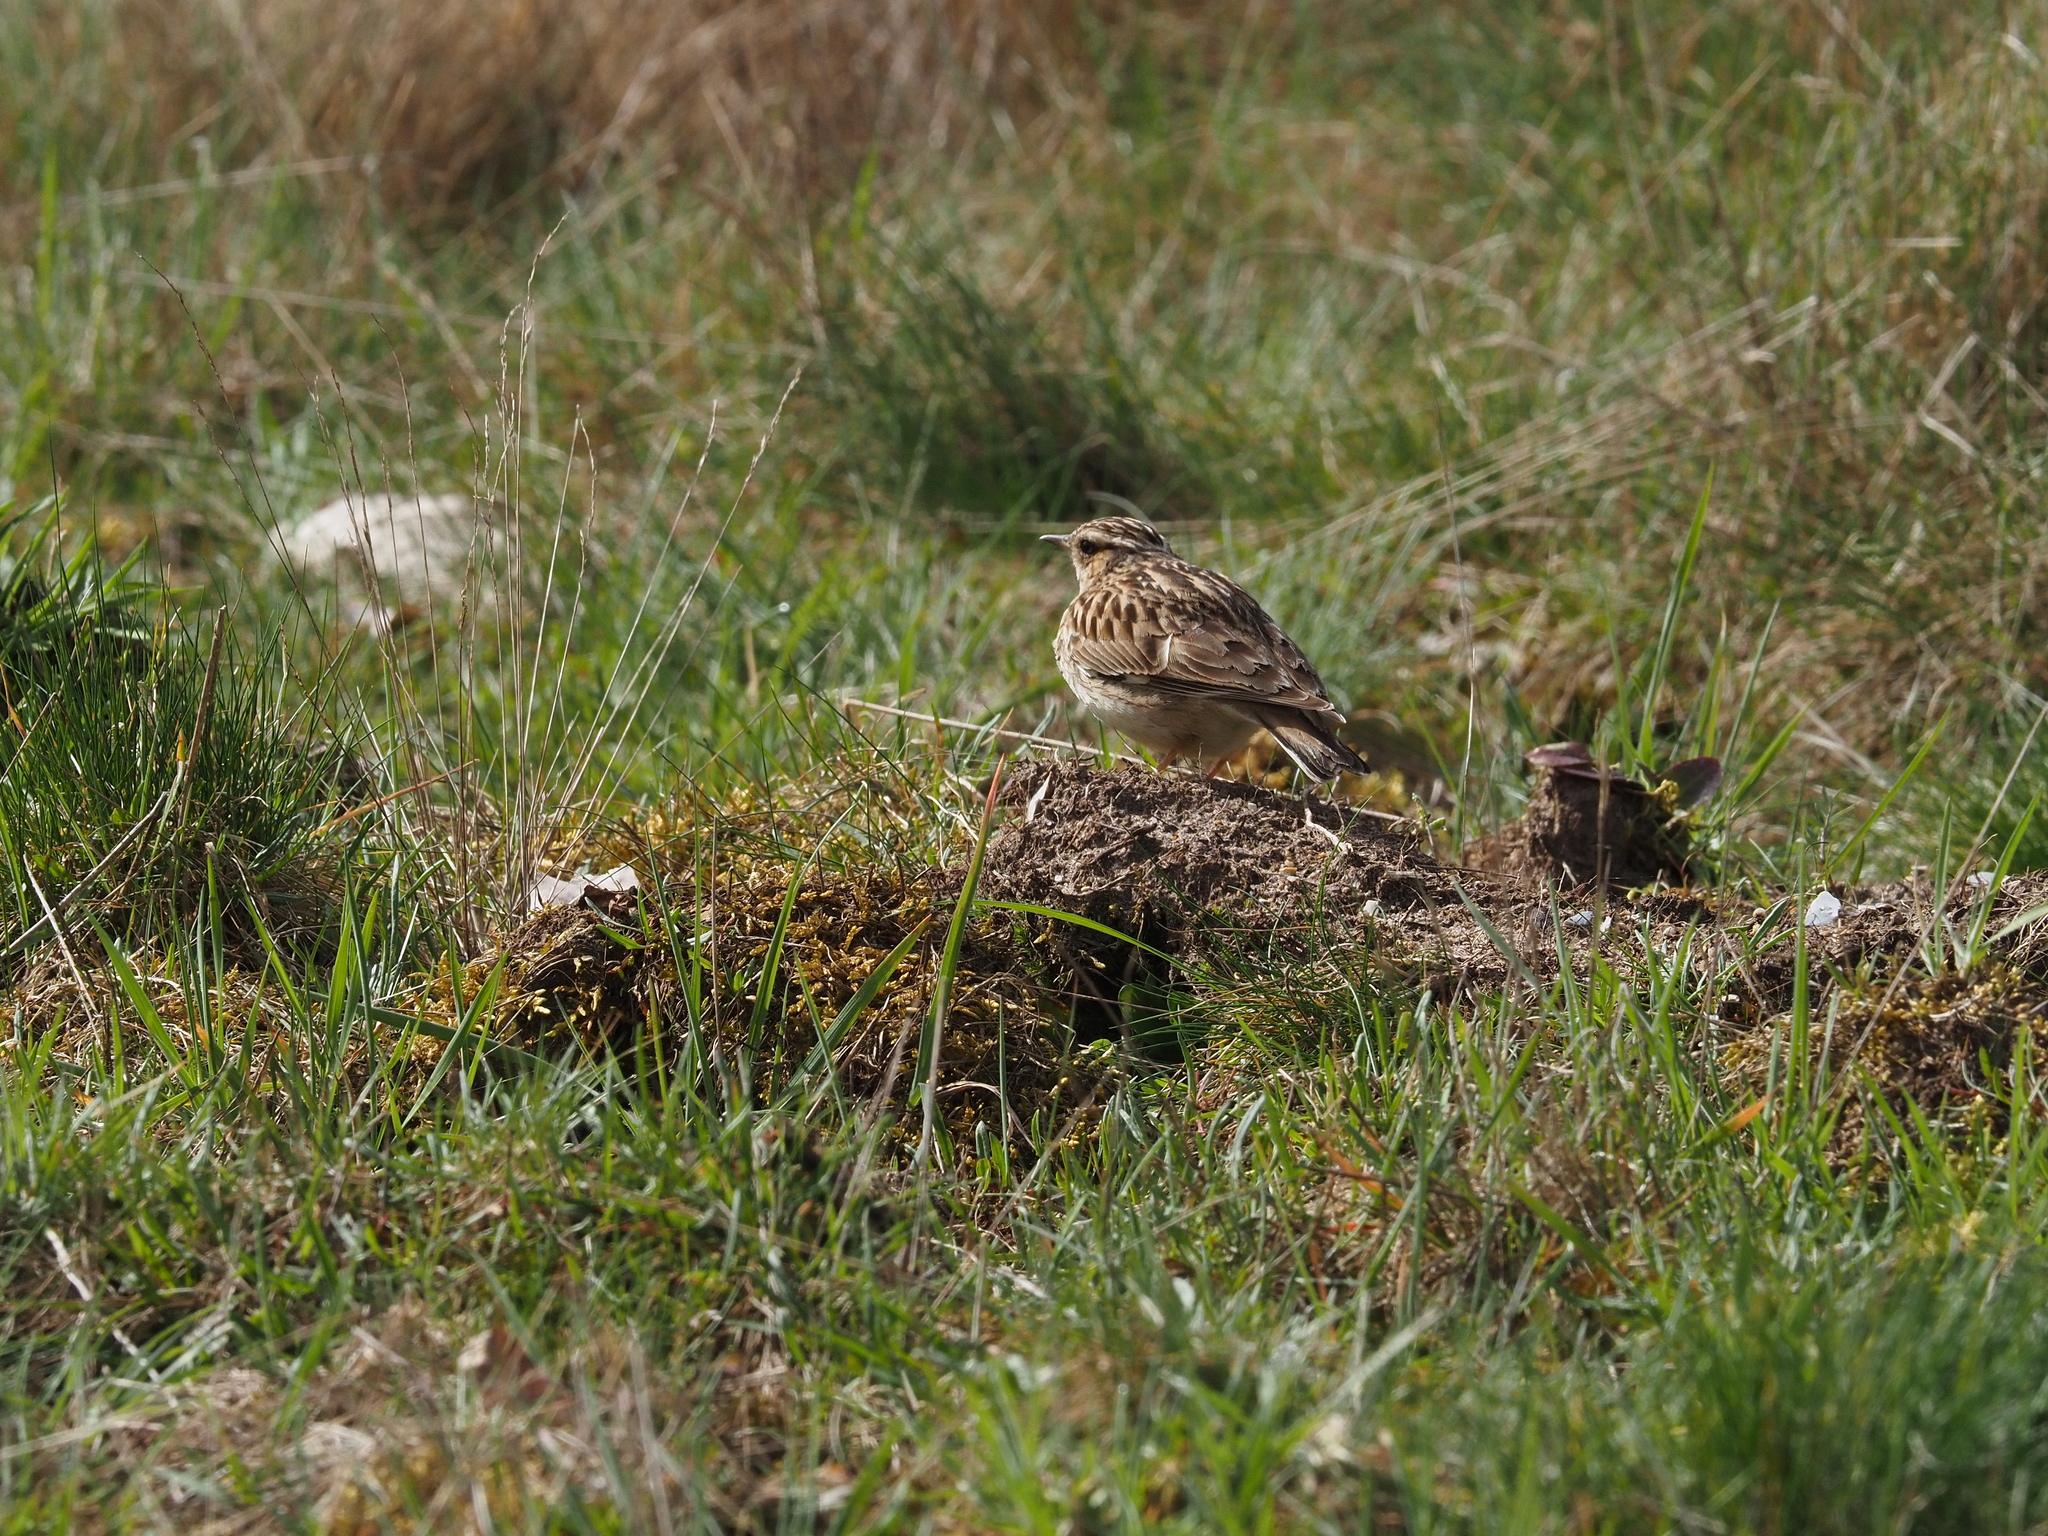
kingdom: Animalia
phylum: Chordata
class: Aves
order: Passeriformes
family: Alaudidae
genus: Lullula
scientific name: Lullula arborea
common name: Woodlark
